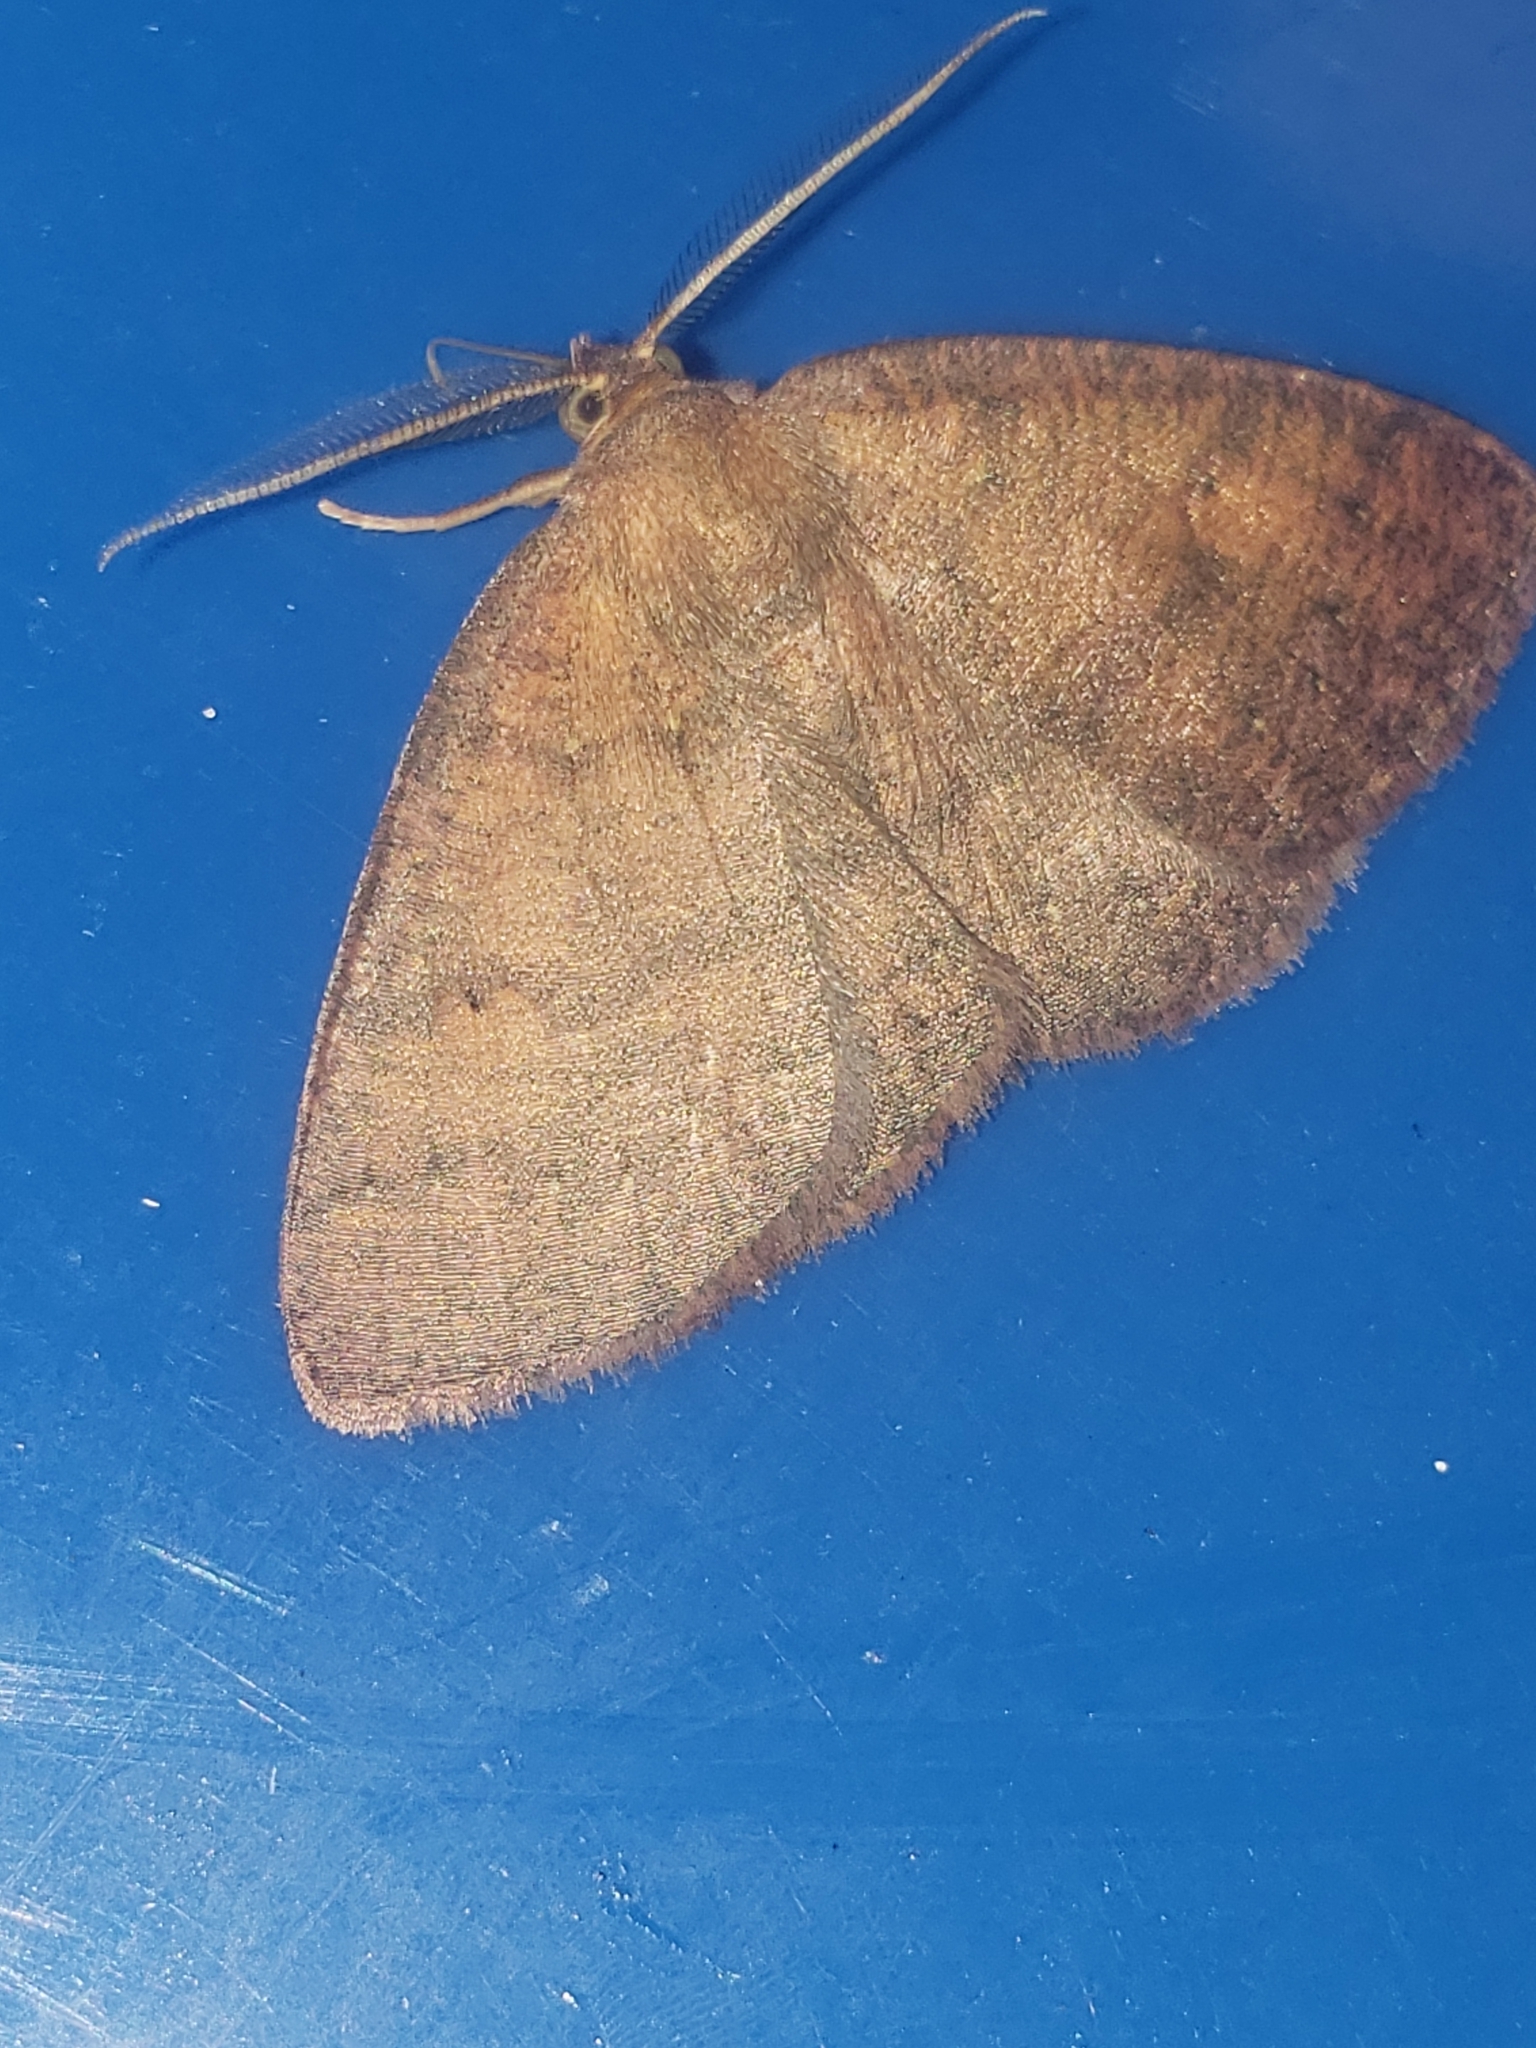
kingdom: Animalia
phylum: Arthropoda
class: Insecta
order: Lepidoptera
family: Geometridae
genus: Ilexia
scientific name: Ilexia intractata
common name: Black-dotted ruddy moth
